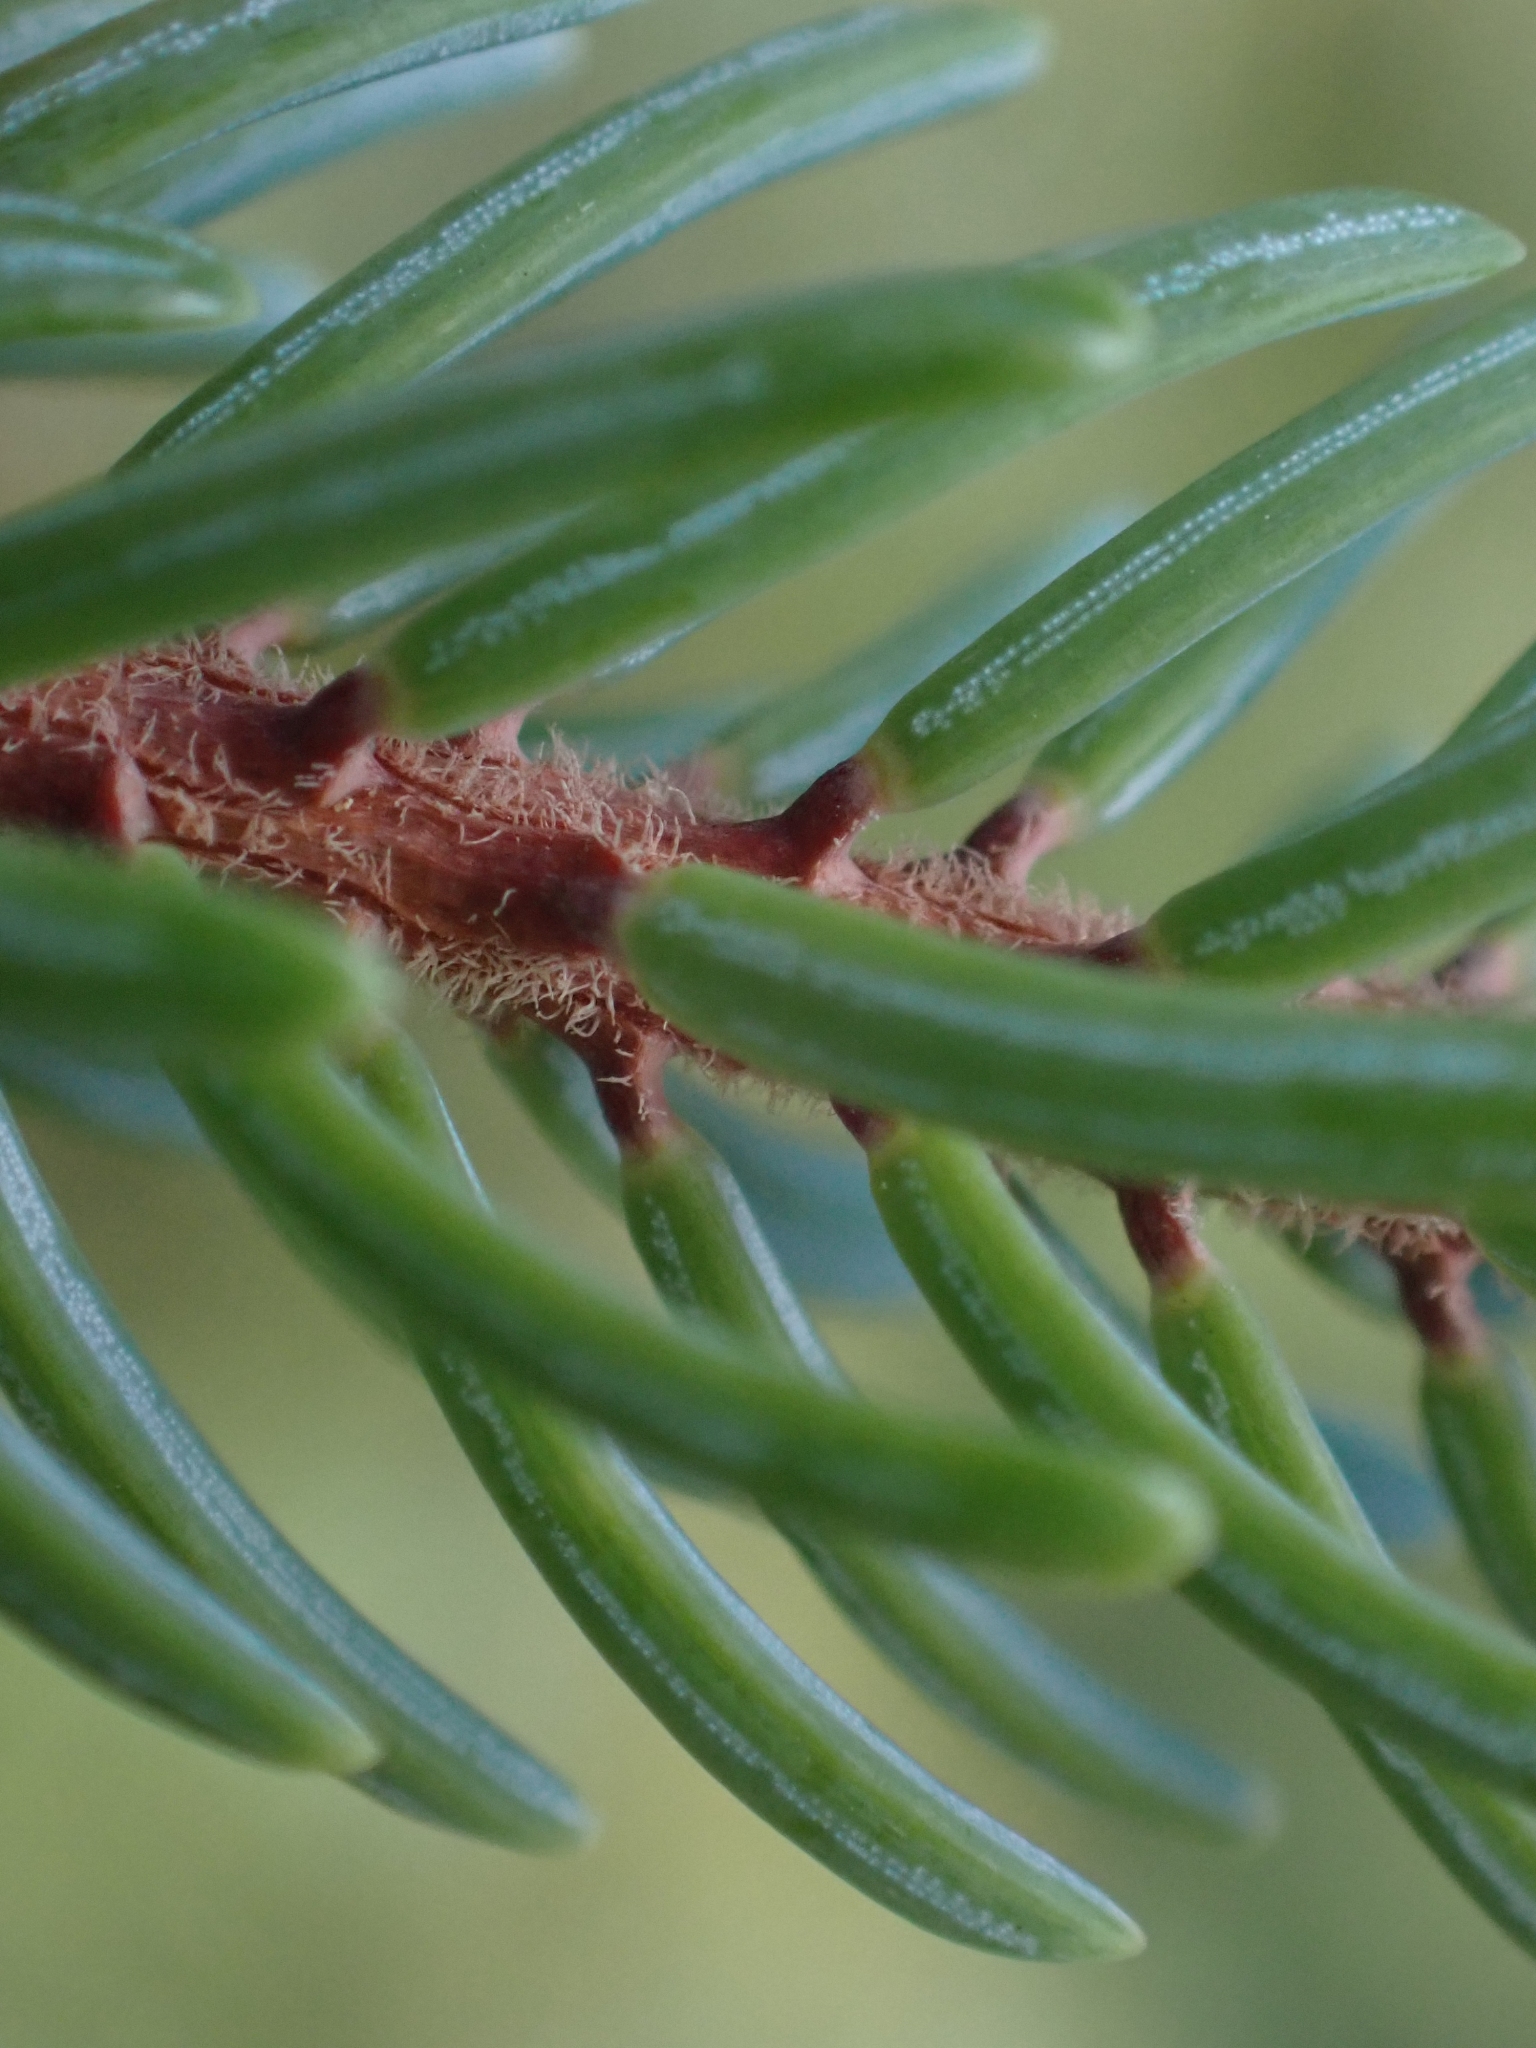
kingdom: Plantae
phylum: Tracheophyta
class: Pinopsida
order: Pinales
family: Pinaceae
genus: Picea
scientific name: Picea mariana
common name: Black spruce
